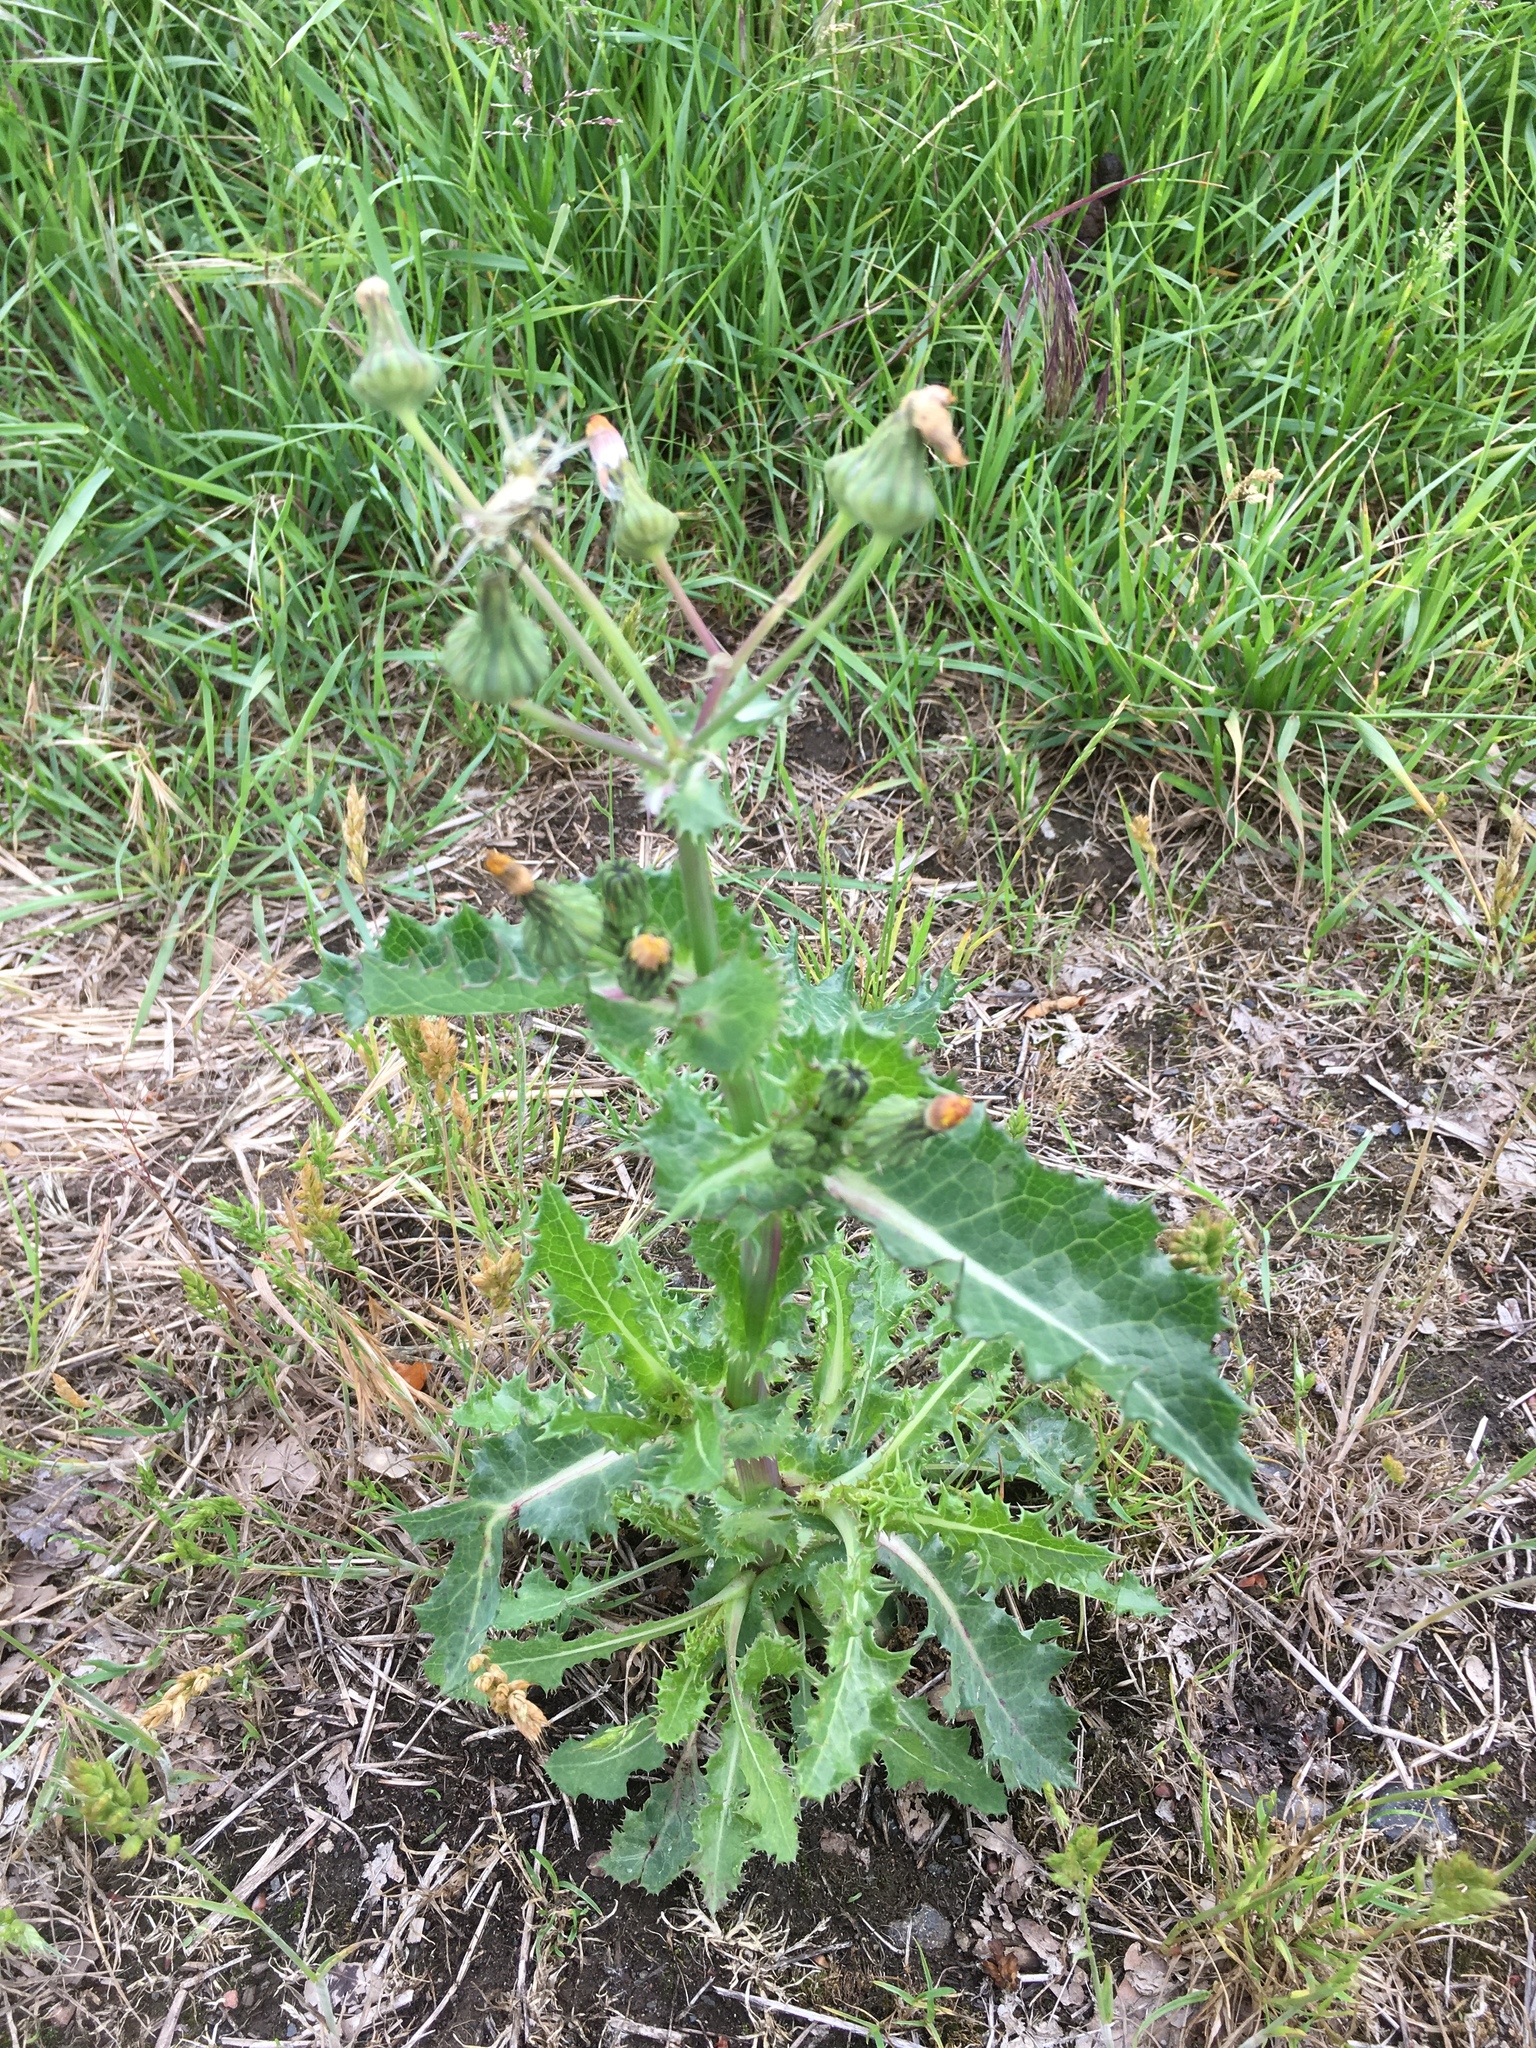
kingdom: Plantae
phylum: Tracheophyta
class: Magnoliopsida
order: Asterales
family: Asteraceae
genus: Sonchus
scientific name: Sonchus asper
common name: Prickly sow-thistle
